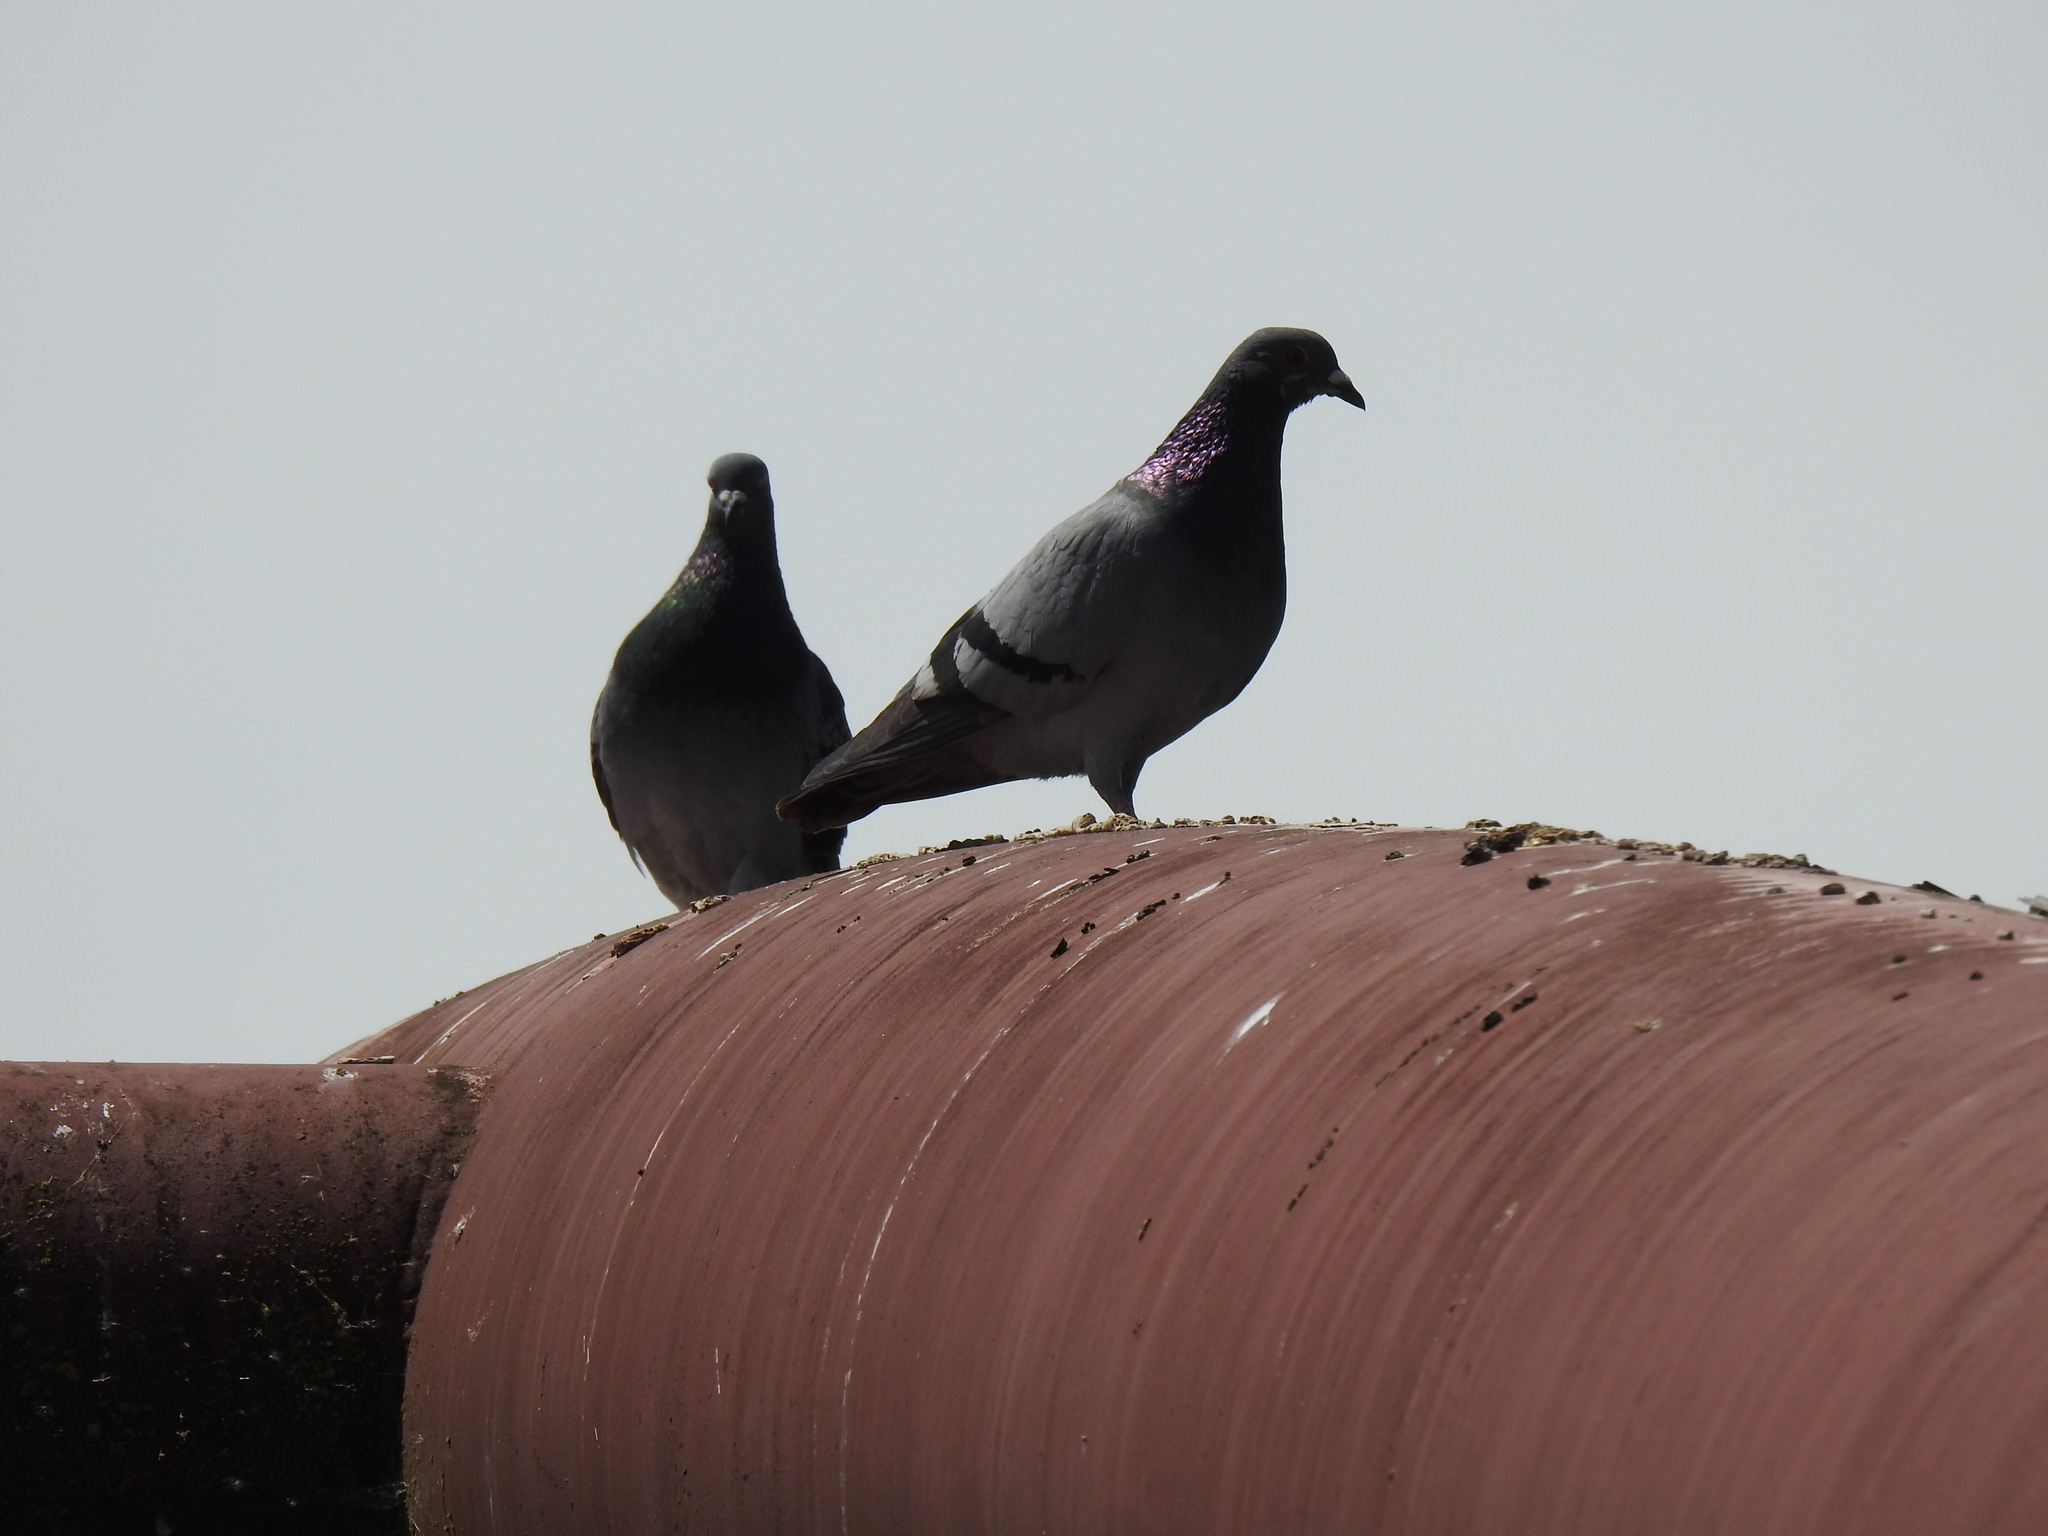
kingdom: Animalia
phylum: Chordata
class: Aves
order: Columbiformes
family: Columbidae
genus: Columba
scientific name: Columba livia
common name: Rock pigeon
